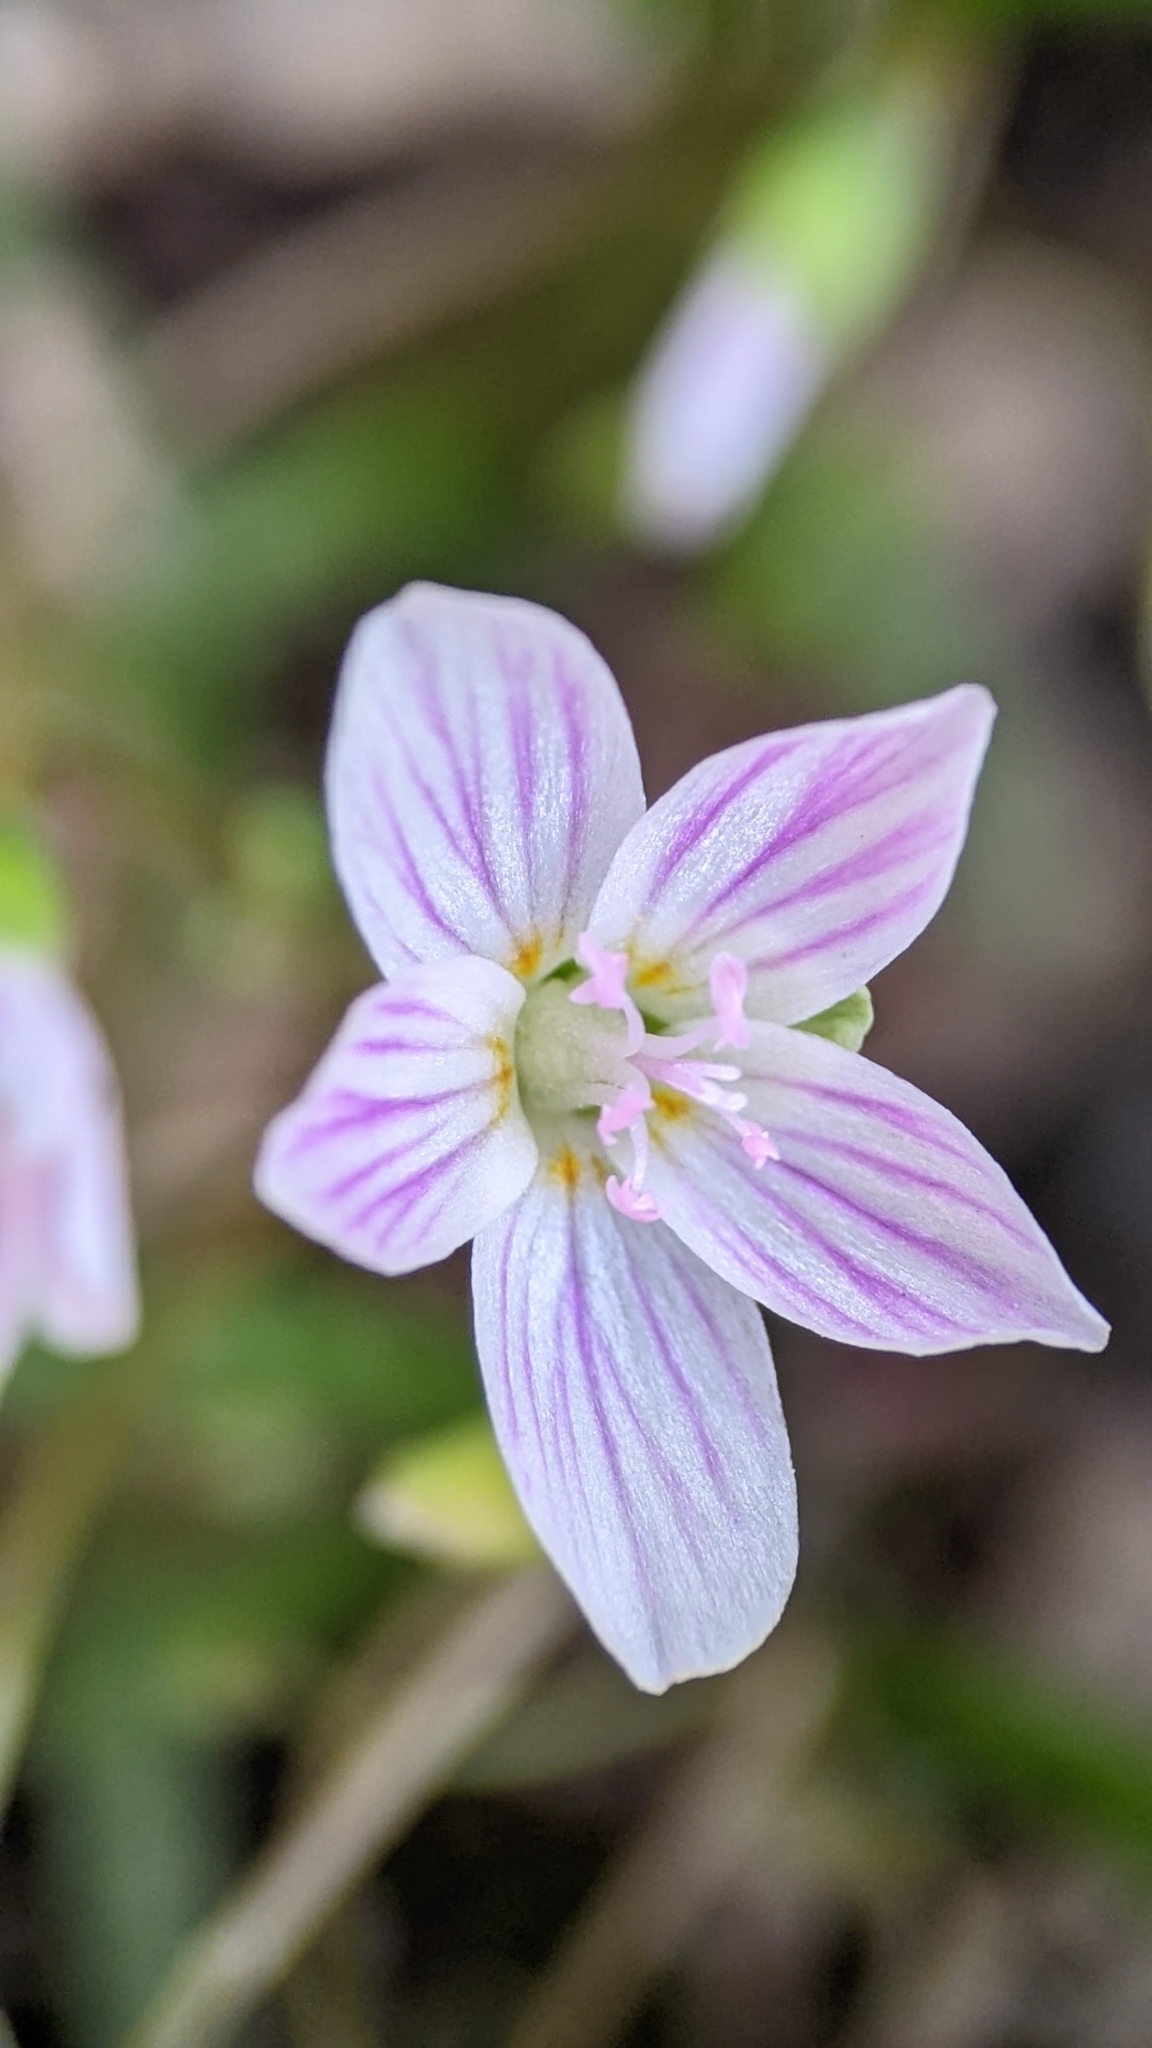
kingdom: Plantae
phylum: Tracheophyta
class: Magnoliopsida
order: Caryophyllales
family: Montiaceae
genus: Claytonia
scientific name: Claytonia virginica
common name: Virginia springbeauty
